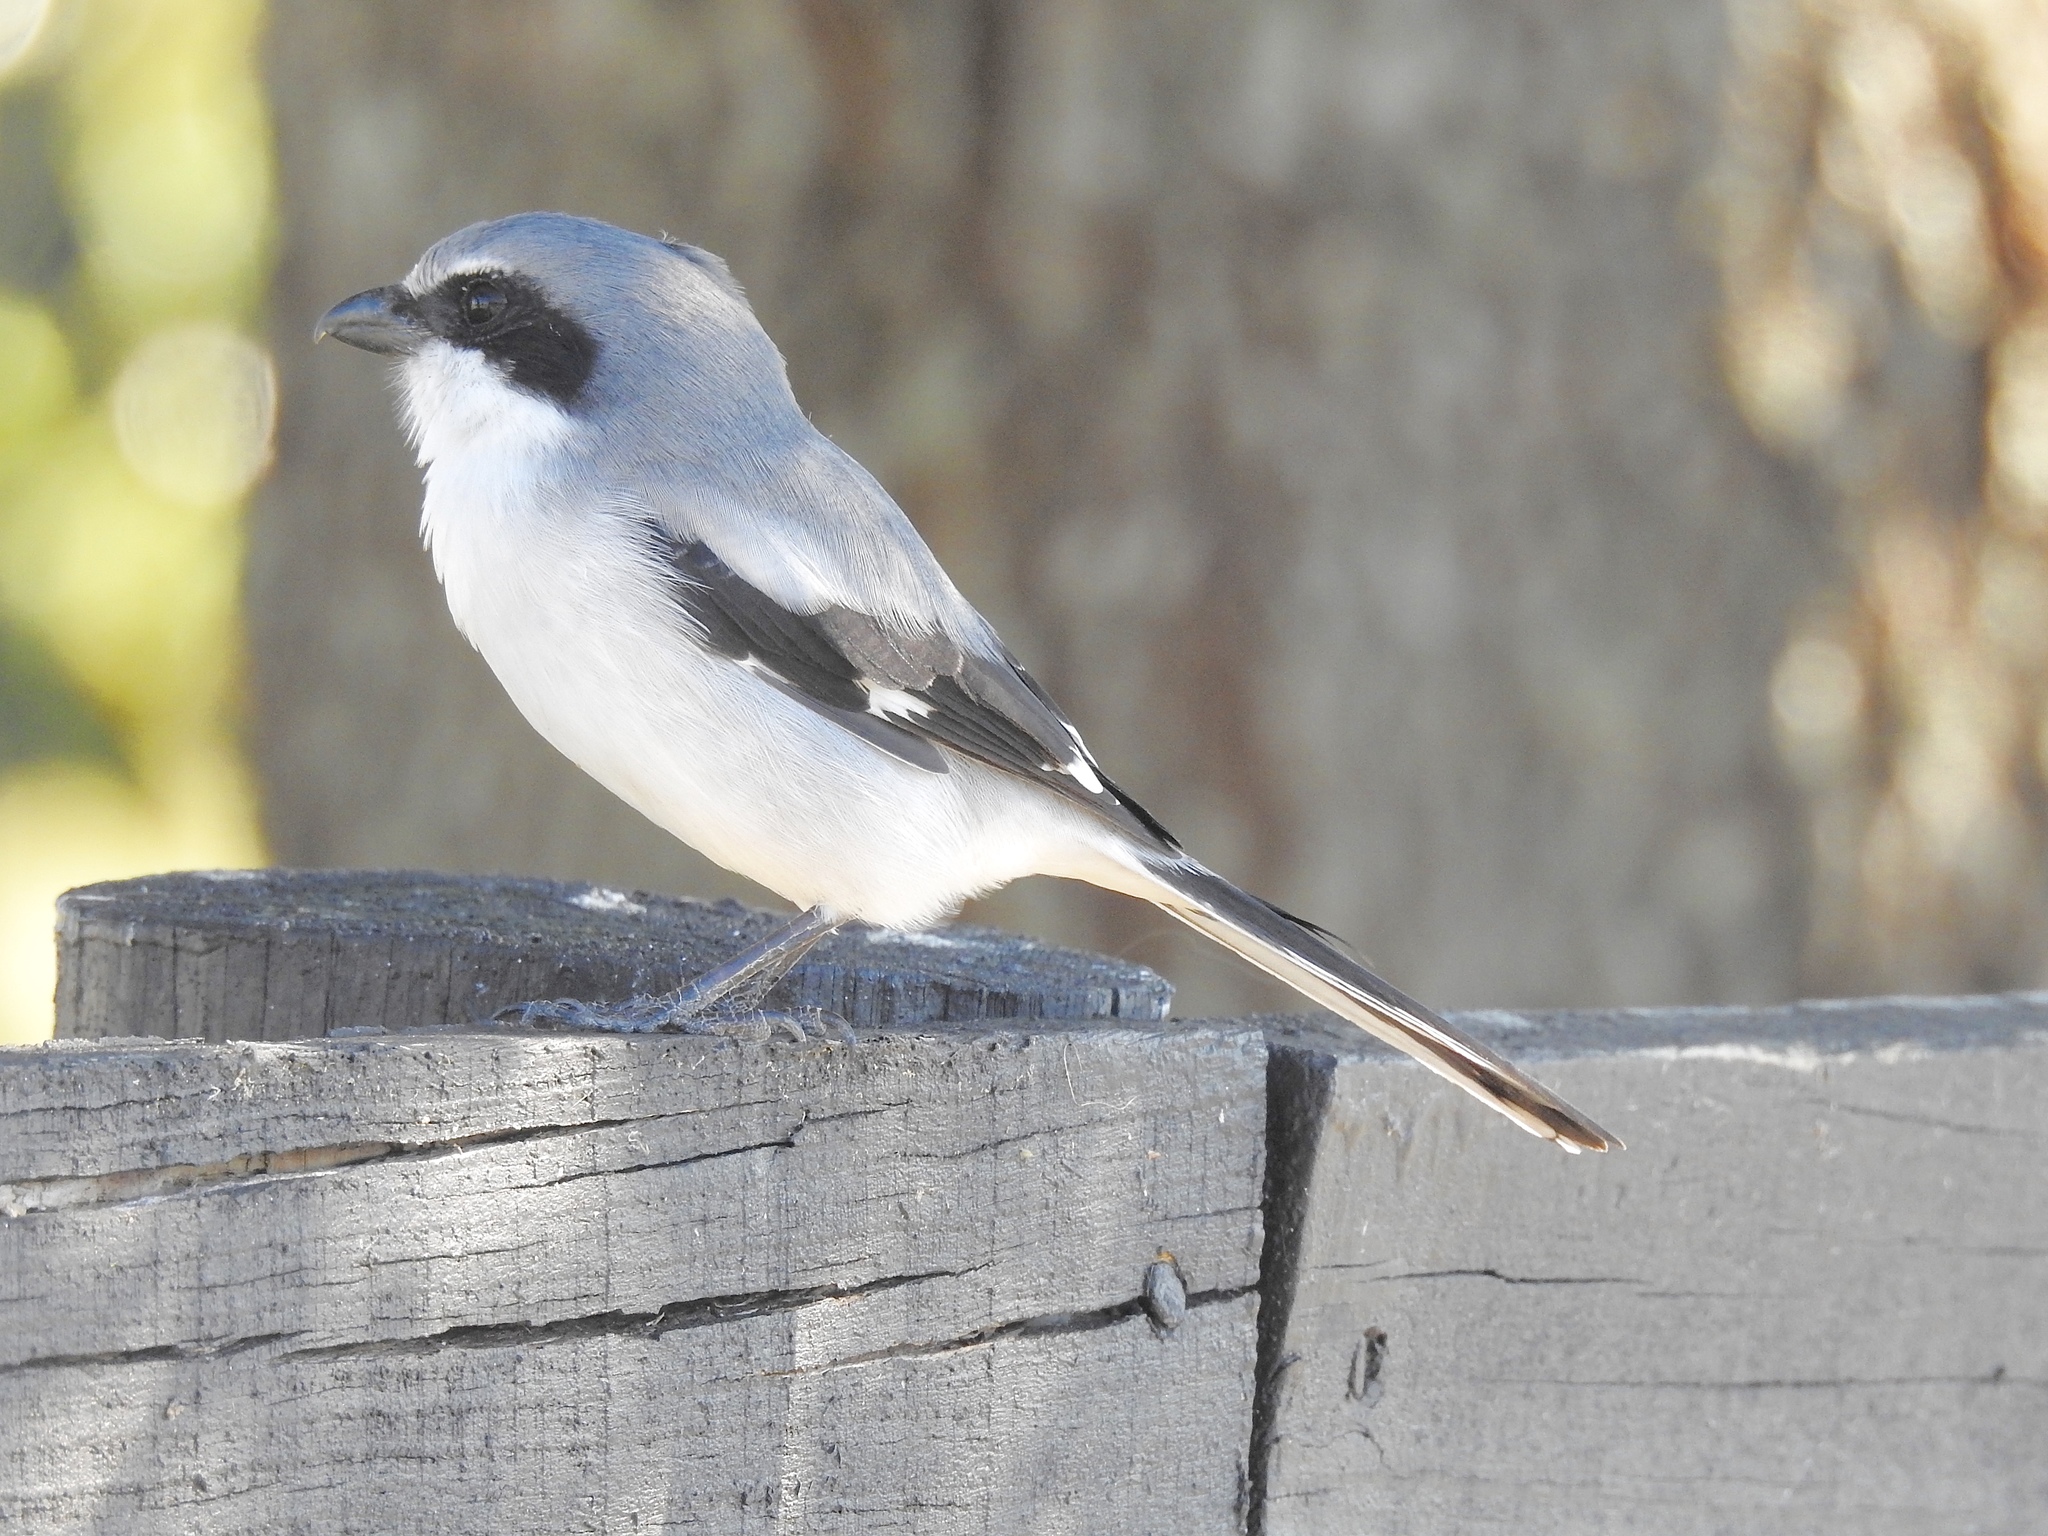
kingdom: Animalia
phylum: Chordata
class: Aves
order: Passeriformes
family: Laniidae
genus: Lanius
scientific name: Lanius ludovicianus
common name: Loggerhead shrike
